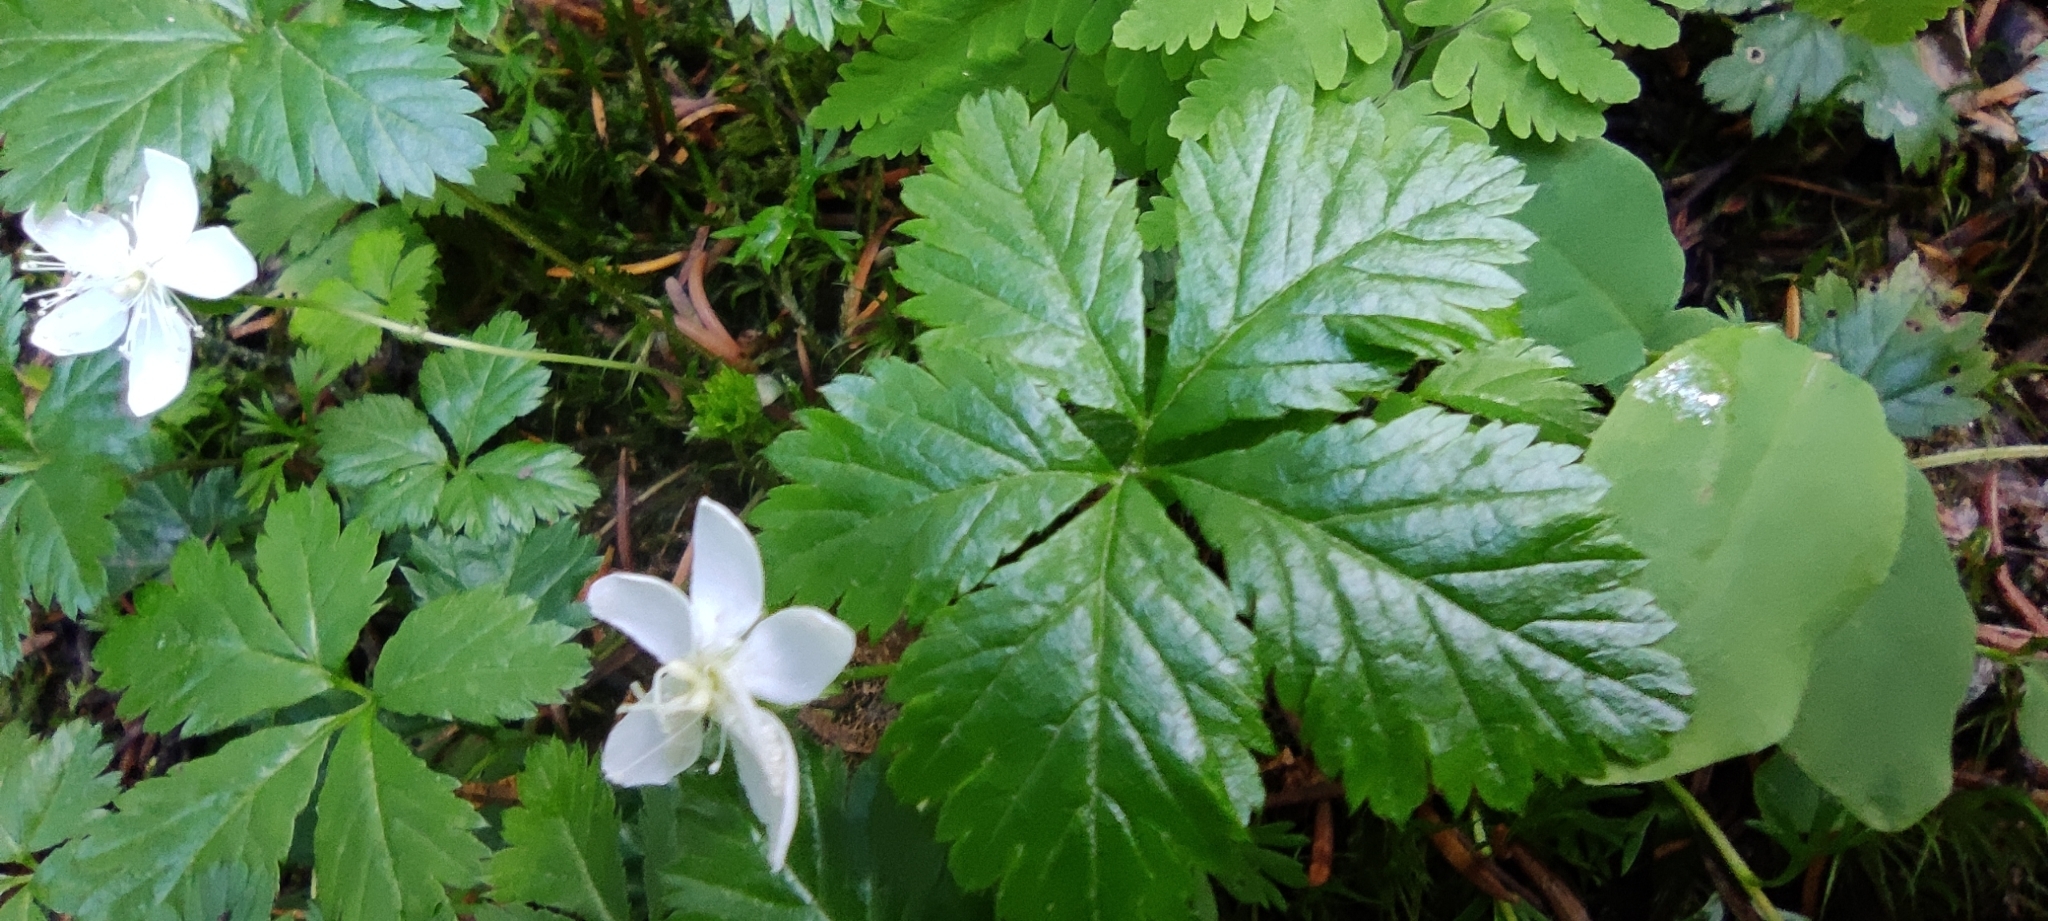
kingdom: Plantae
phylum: Tracheophyta
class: Magnoliopsida
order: Rosales
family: Rosaceae
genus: Rubus
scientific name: Rubus pedatus
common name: Creeping raspberry
